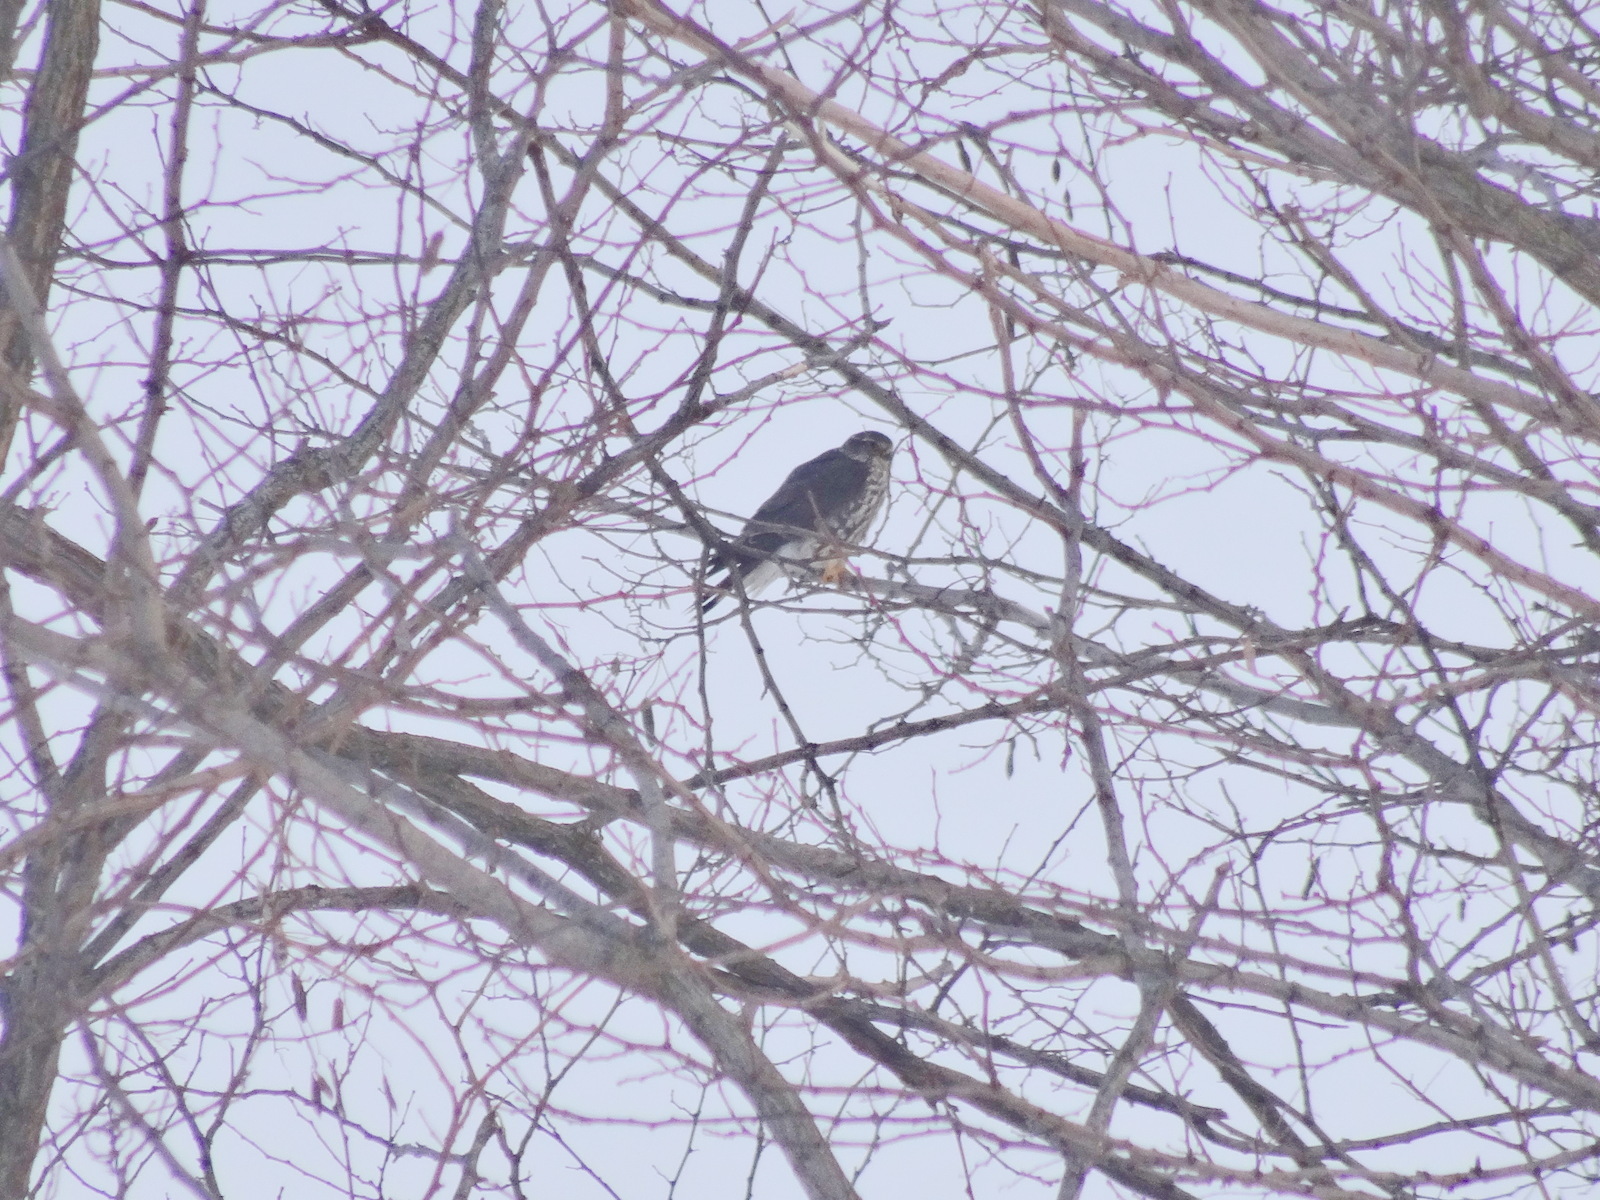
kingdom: Animalia
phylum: Chordata
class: Aves
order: Falconiformes
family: Falconidae
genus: Falco
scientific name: Falco columbarius
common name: Merlin
